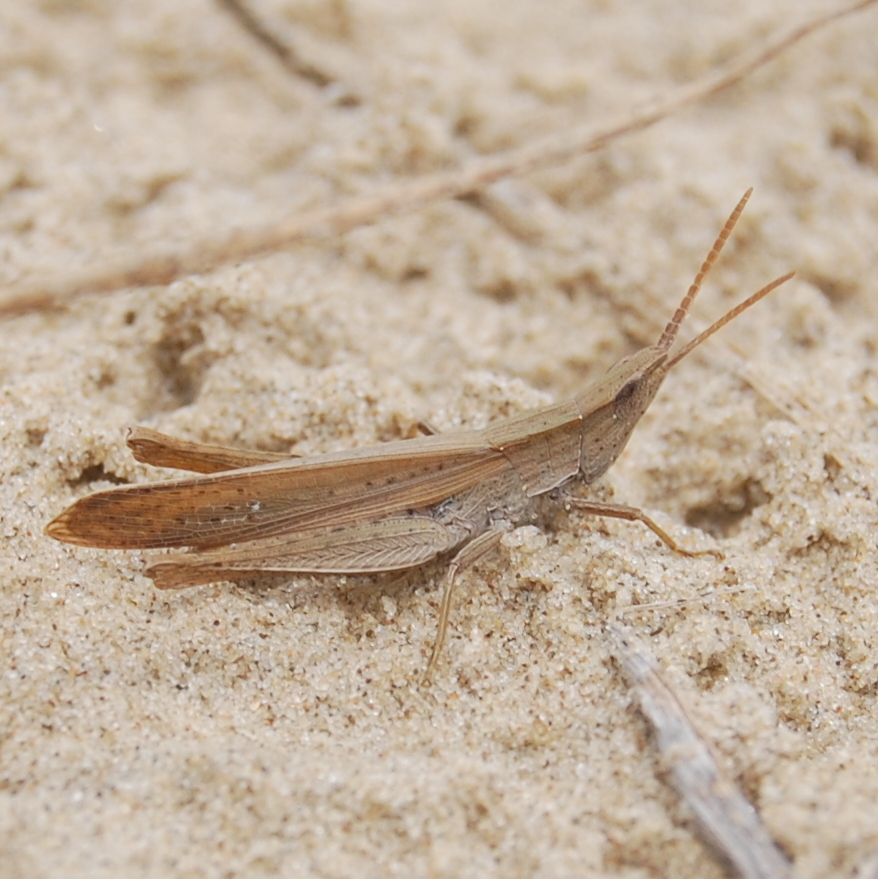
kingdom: Animalia
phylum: Arthropoda
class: Insecta
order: Orthoptera
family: Acrididae
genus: Allotruxalis
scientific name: Allotruxalis gracilis
